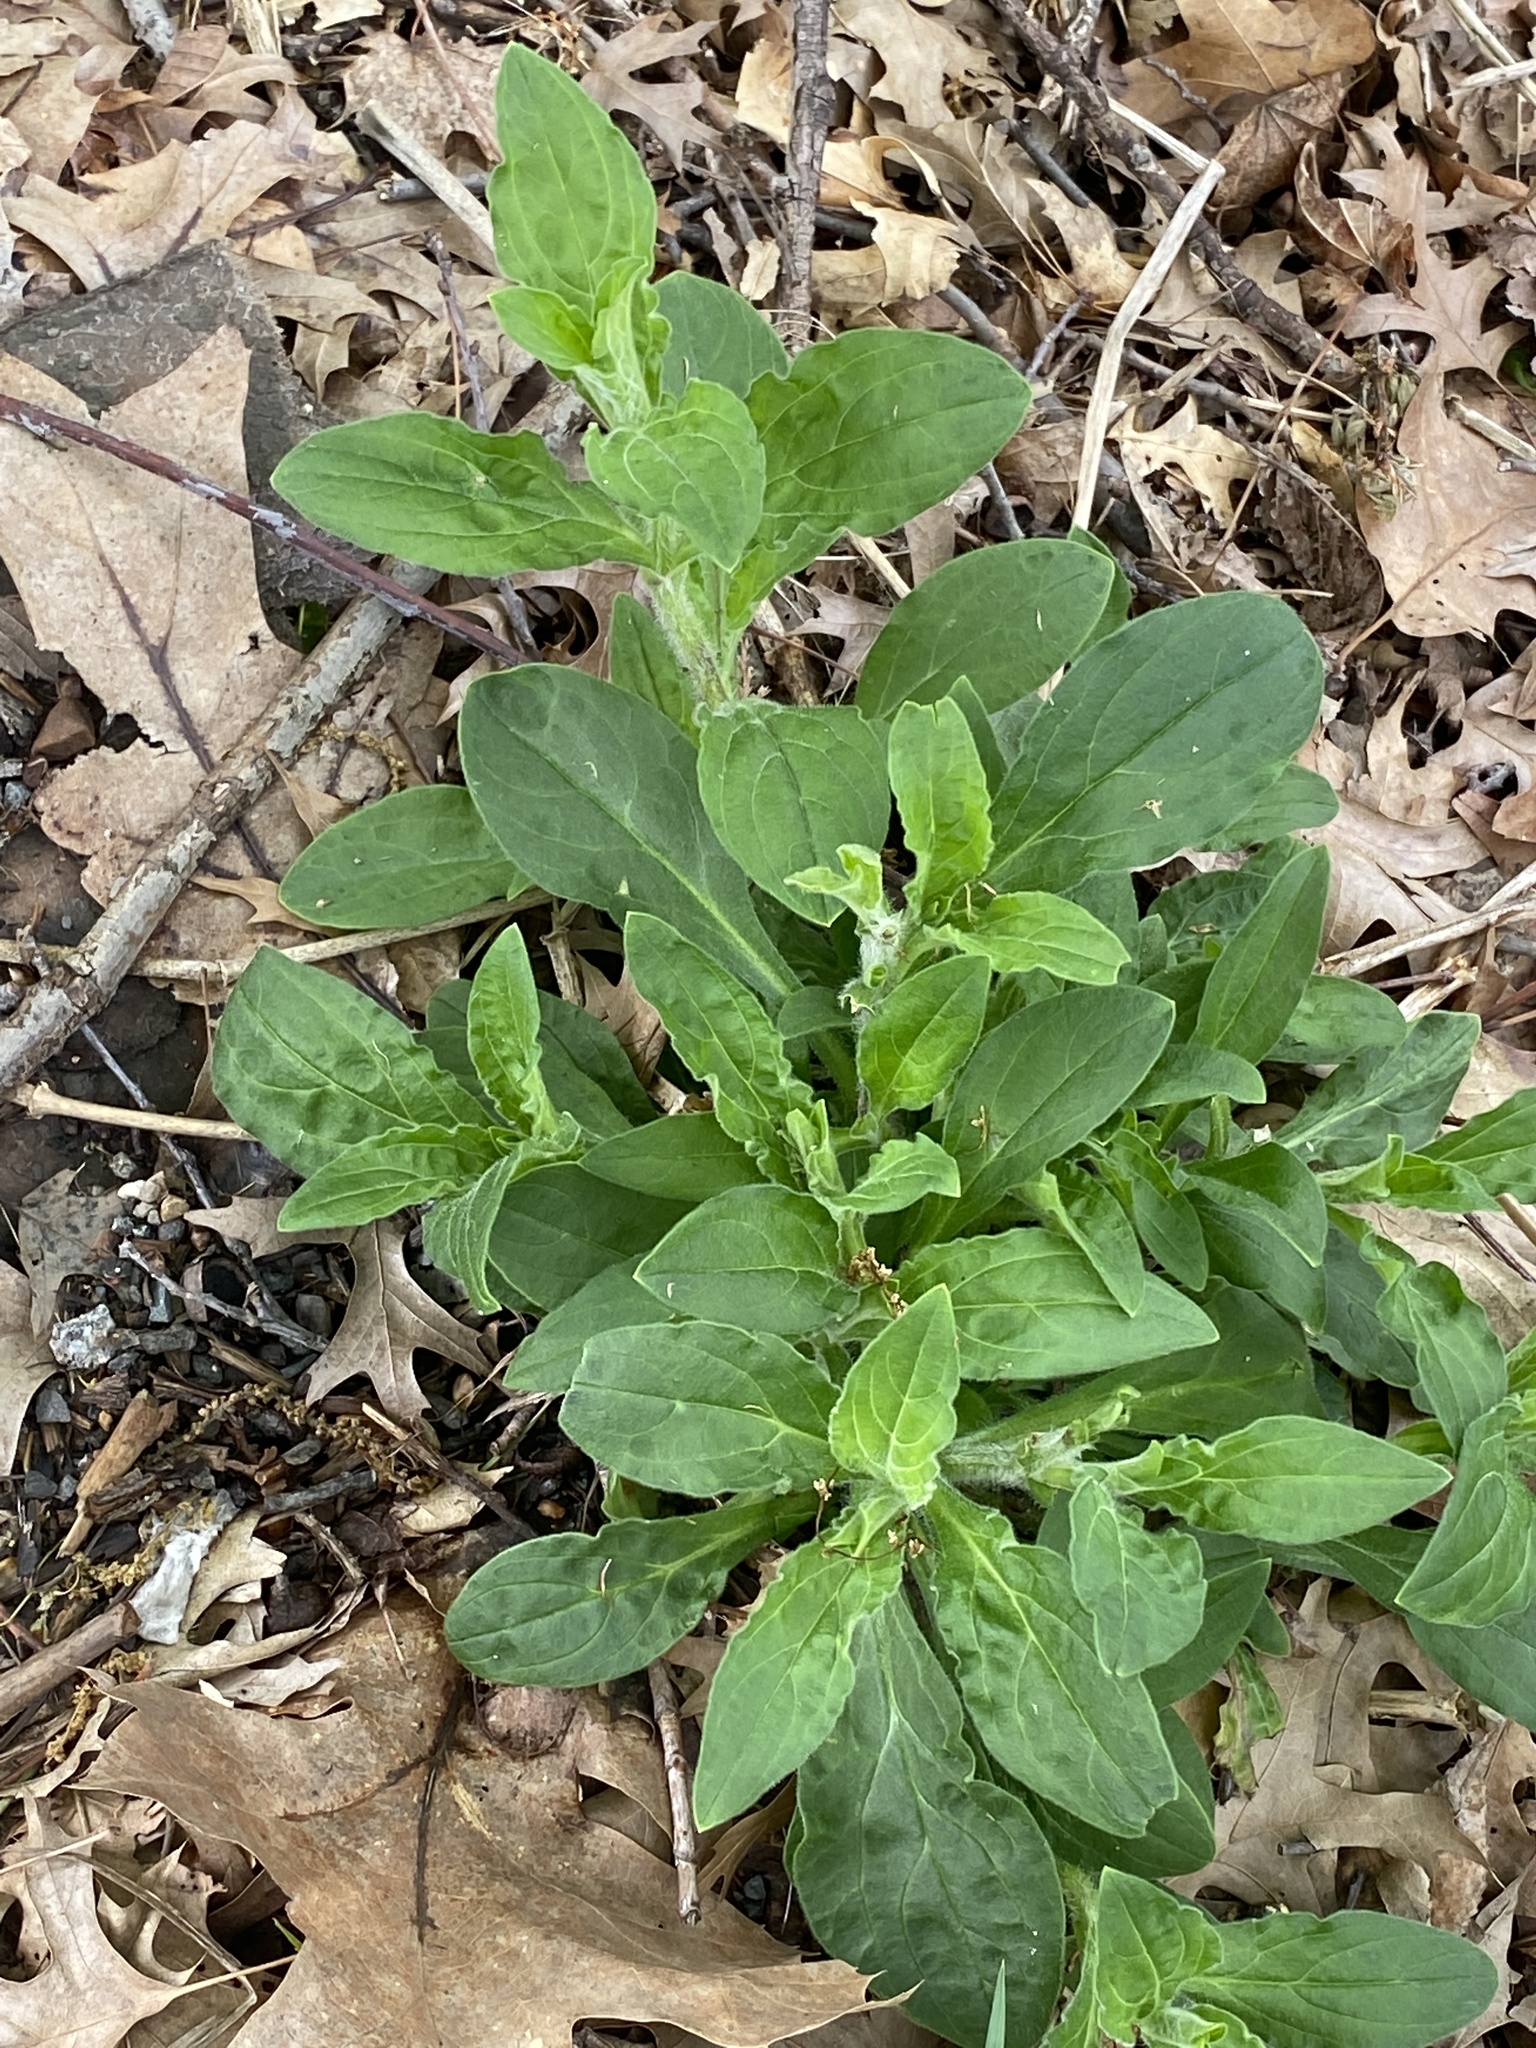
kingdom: Plantae
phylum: Tracheophyta
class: Magnoliopsida
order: Caryophyllales
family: Caryophyllaceae
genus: Silene
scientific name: Silene latifolia
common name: White campion
